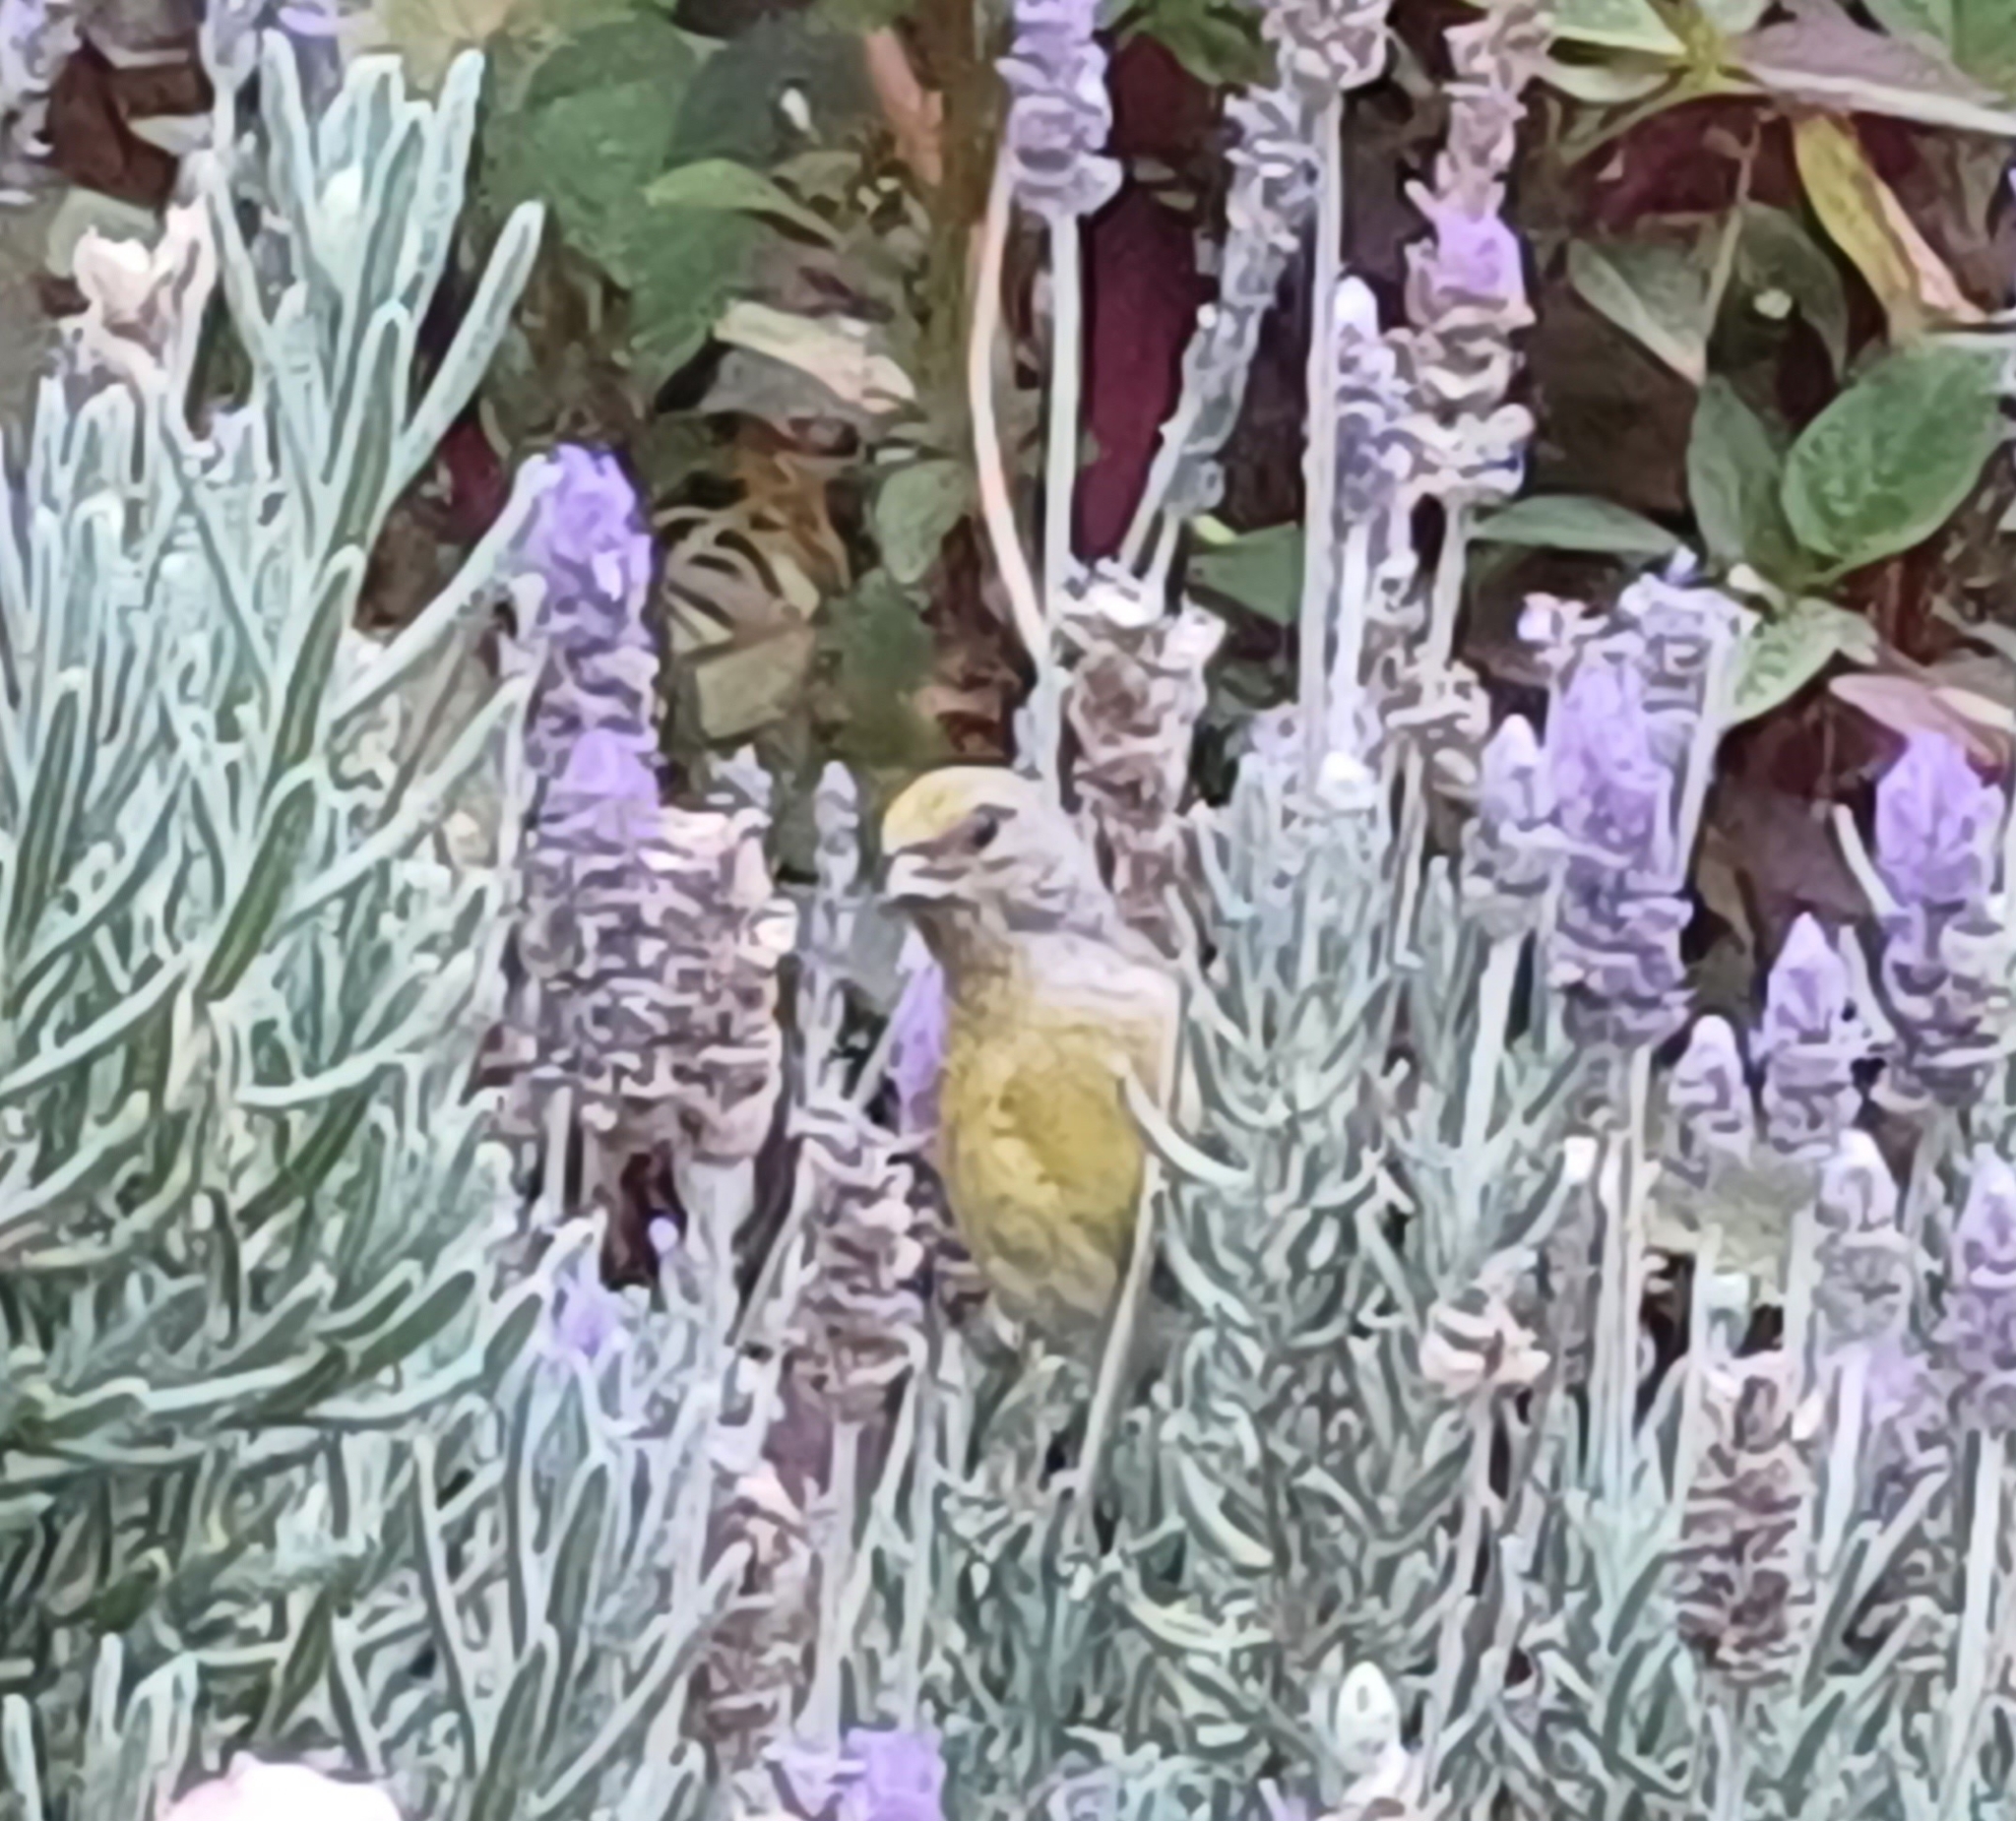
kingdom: Animalia
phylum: Chordata
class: Aves
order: Passeriformes
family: Fringillidae
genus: Serinus
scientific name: Serinus canicollis
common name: Cape canary
